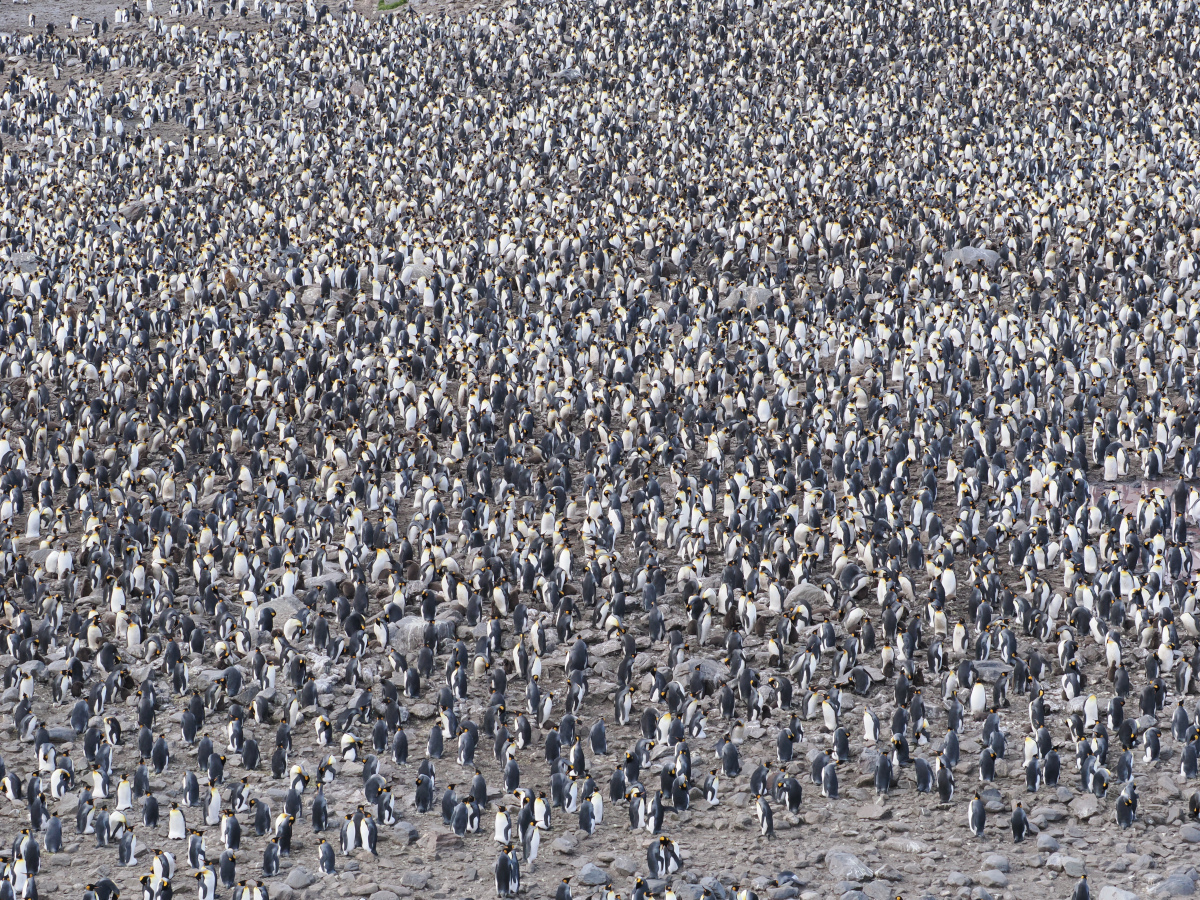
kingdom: Animalia
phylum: Chordata
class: Aves
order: Sphenisciformes
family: Spheniscidae
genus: Aptenodytes
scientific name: Aptenodytes patagonicus
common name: King penguin
